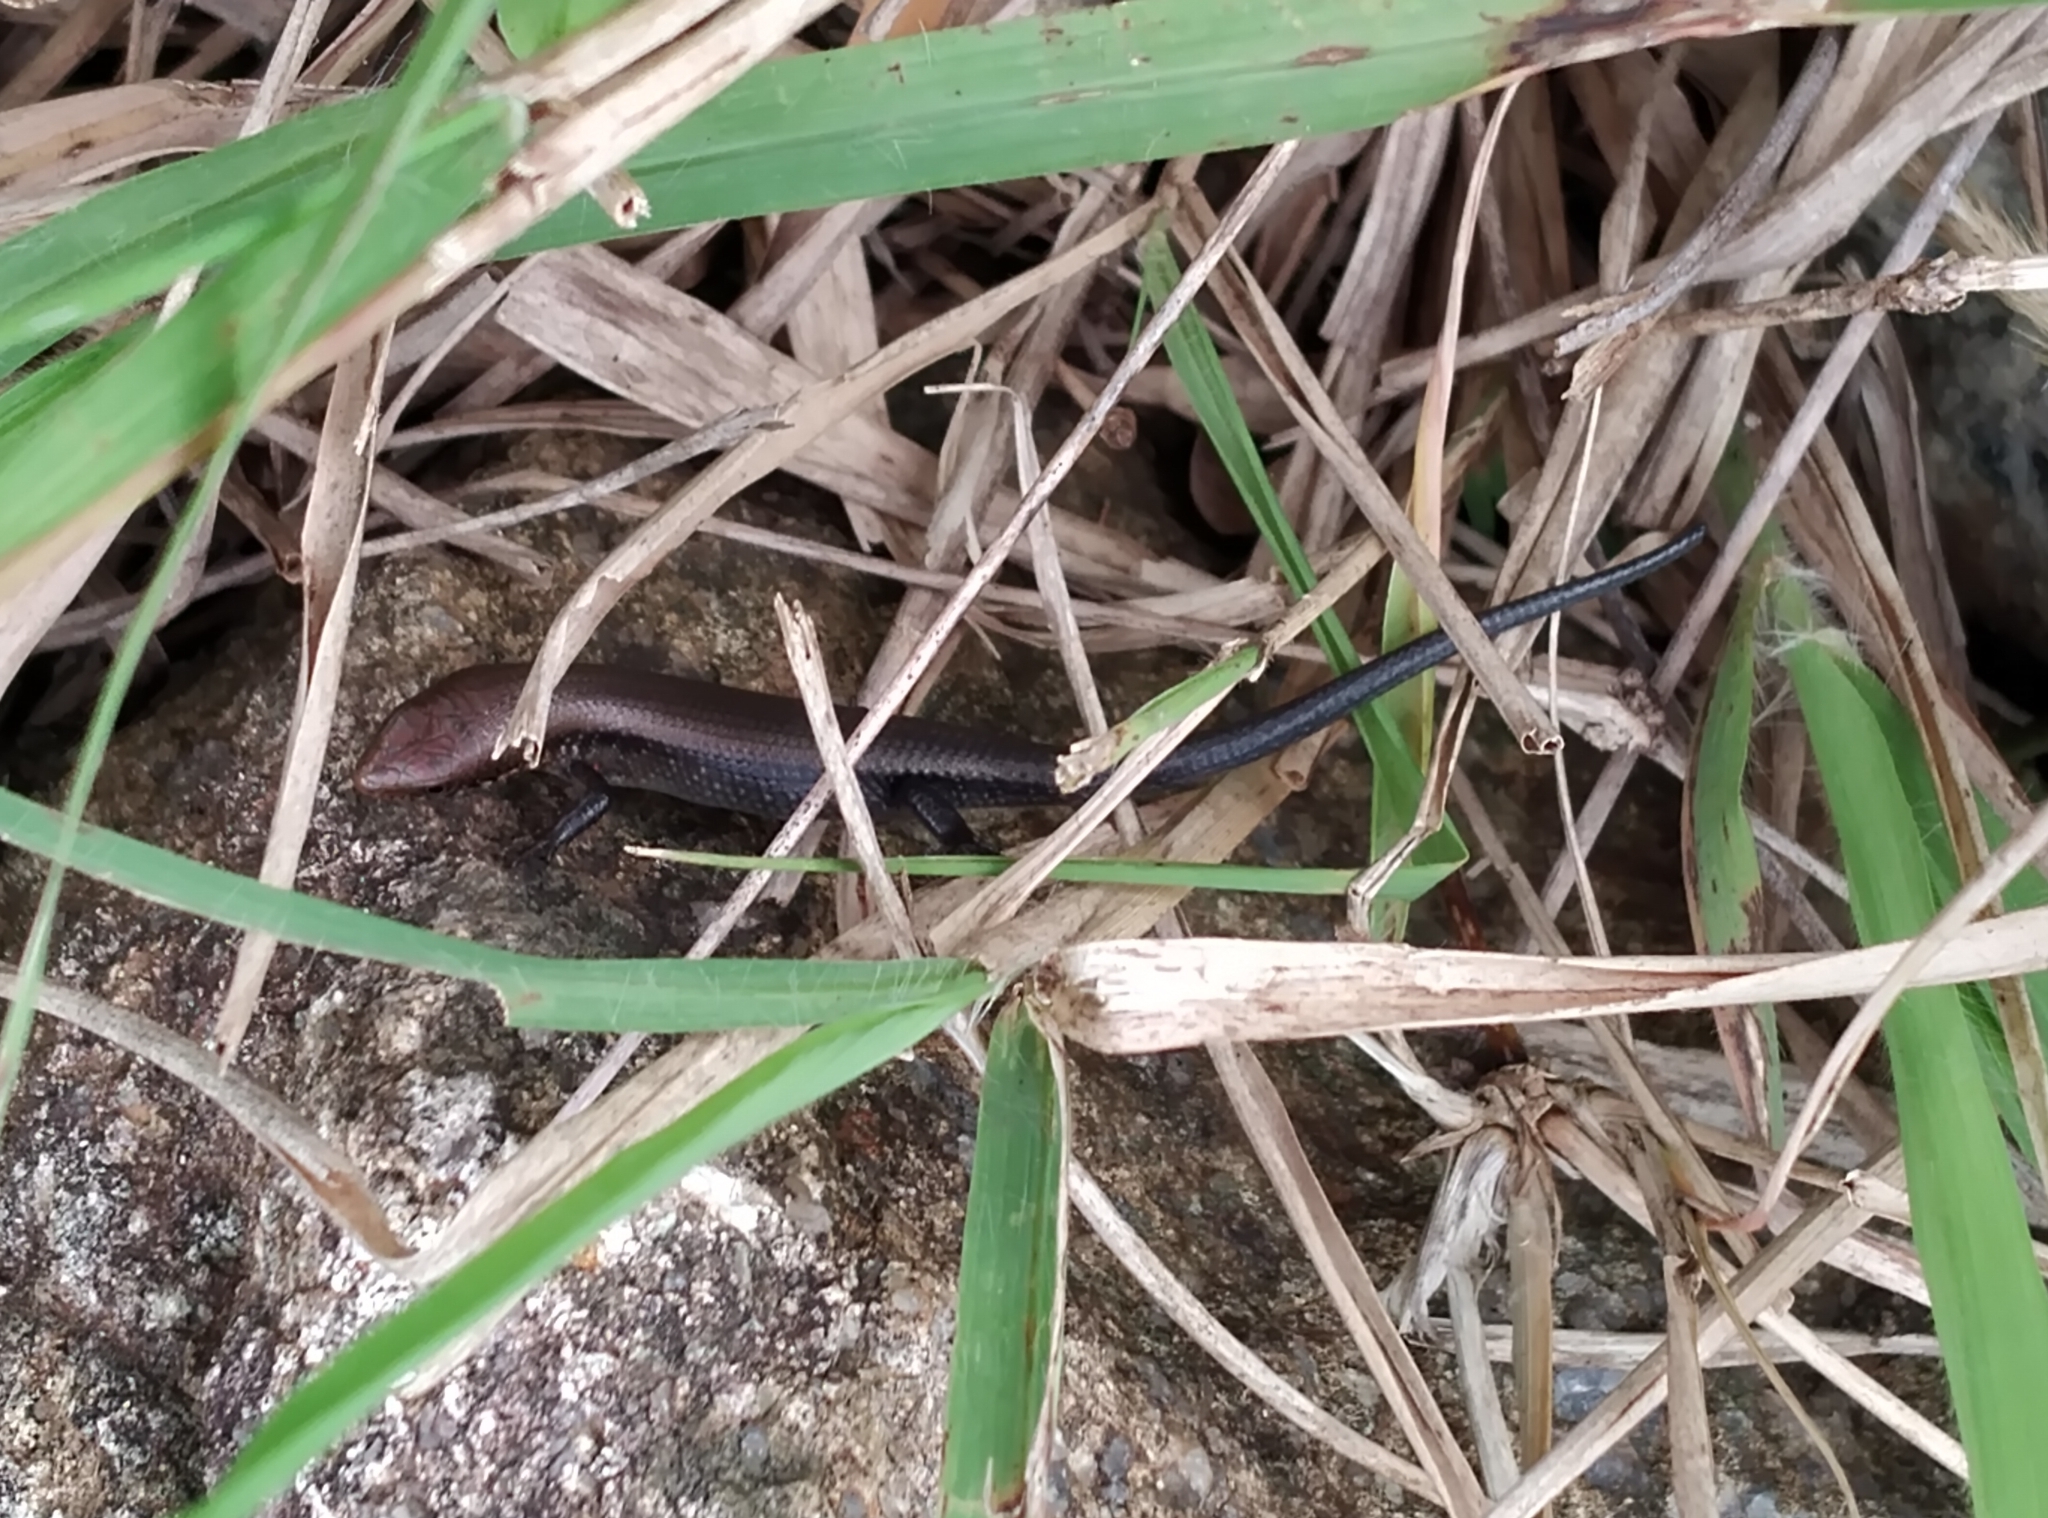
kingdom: Animalia
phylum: Chordata
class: Squamata
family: Scincidae
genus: Eutropis
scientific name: Eutropis macularia
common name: Bronze mabuya
